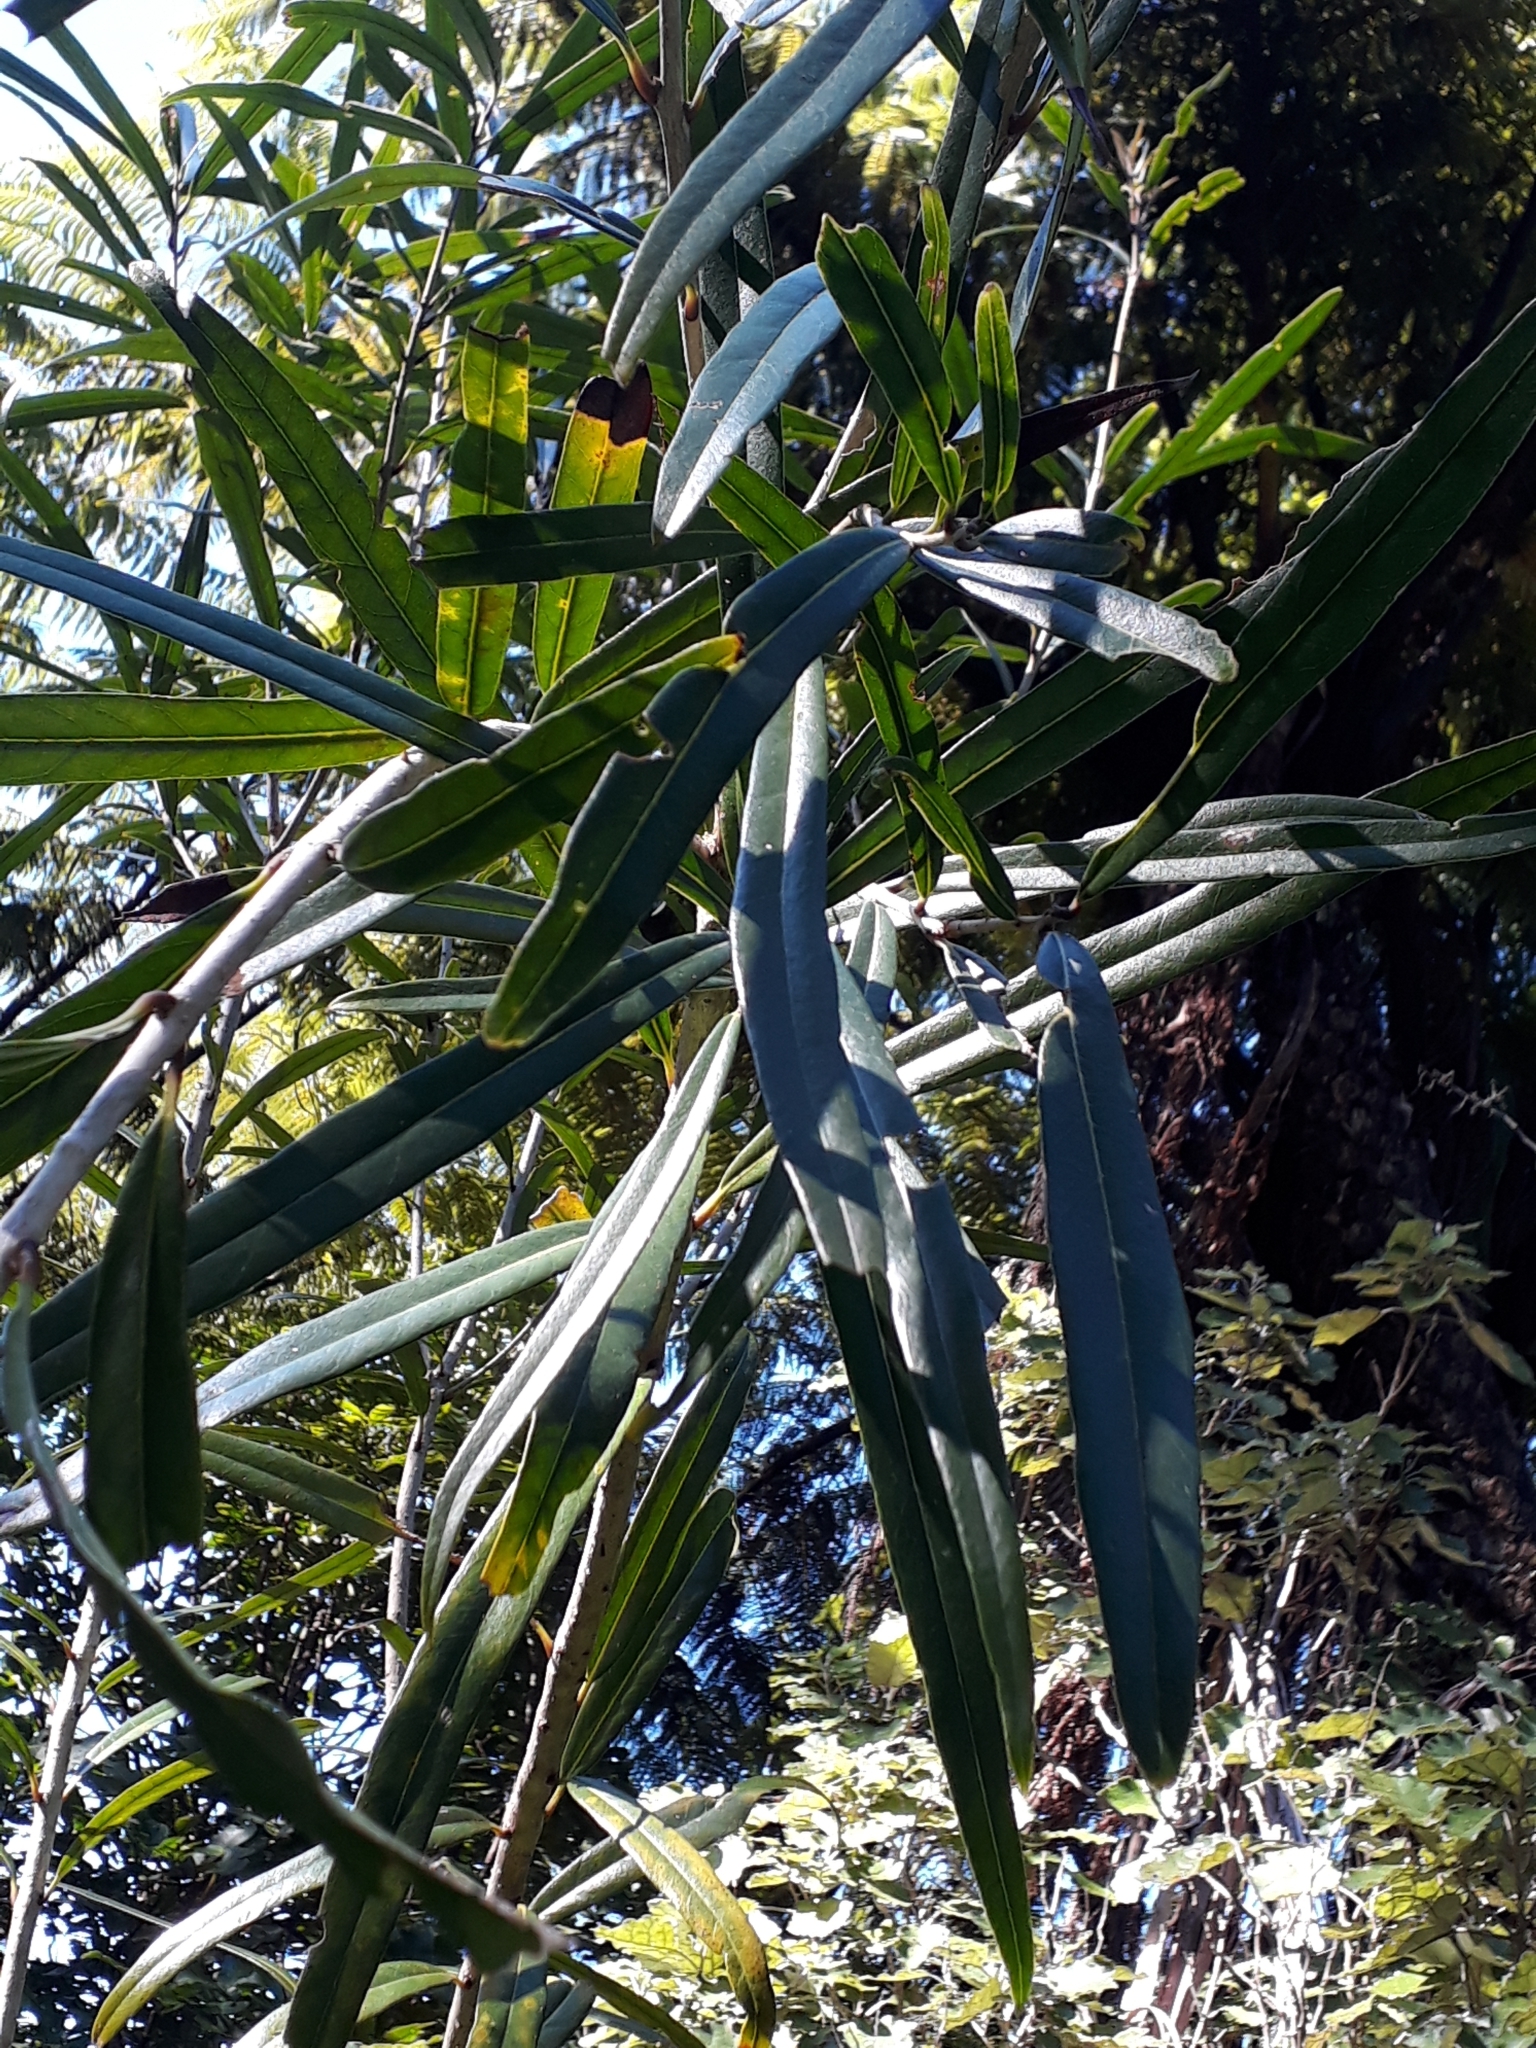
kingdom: Plantae
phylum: Tracheophyta
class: Magnoliopsida
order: Lamiales
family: Oleaceae
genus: Nestegis
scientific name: Nestegis cunninghamii
